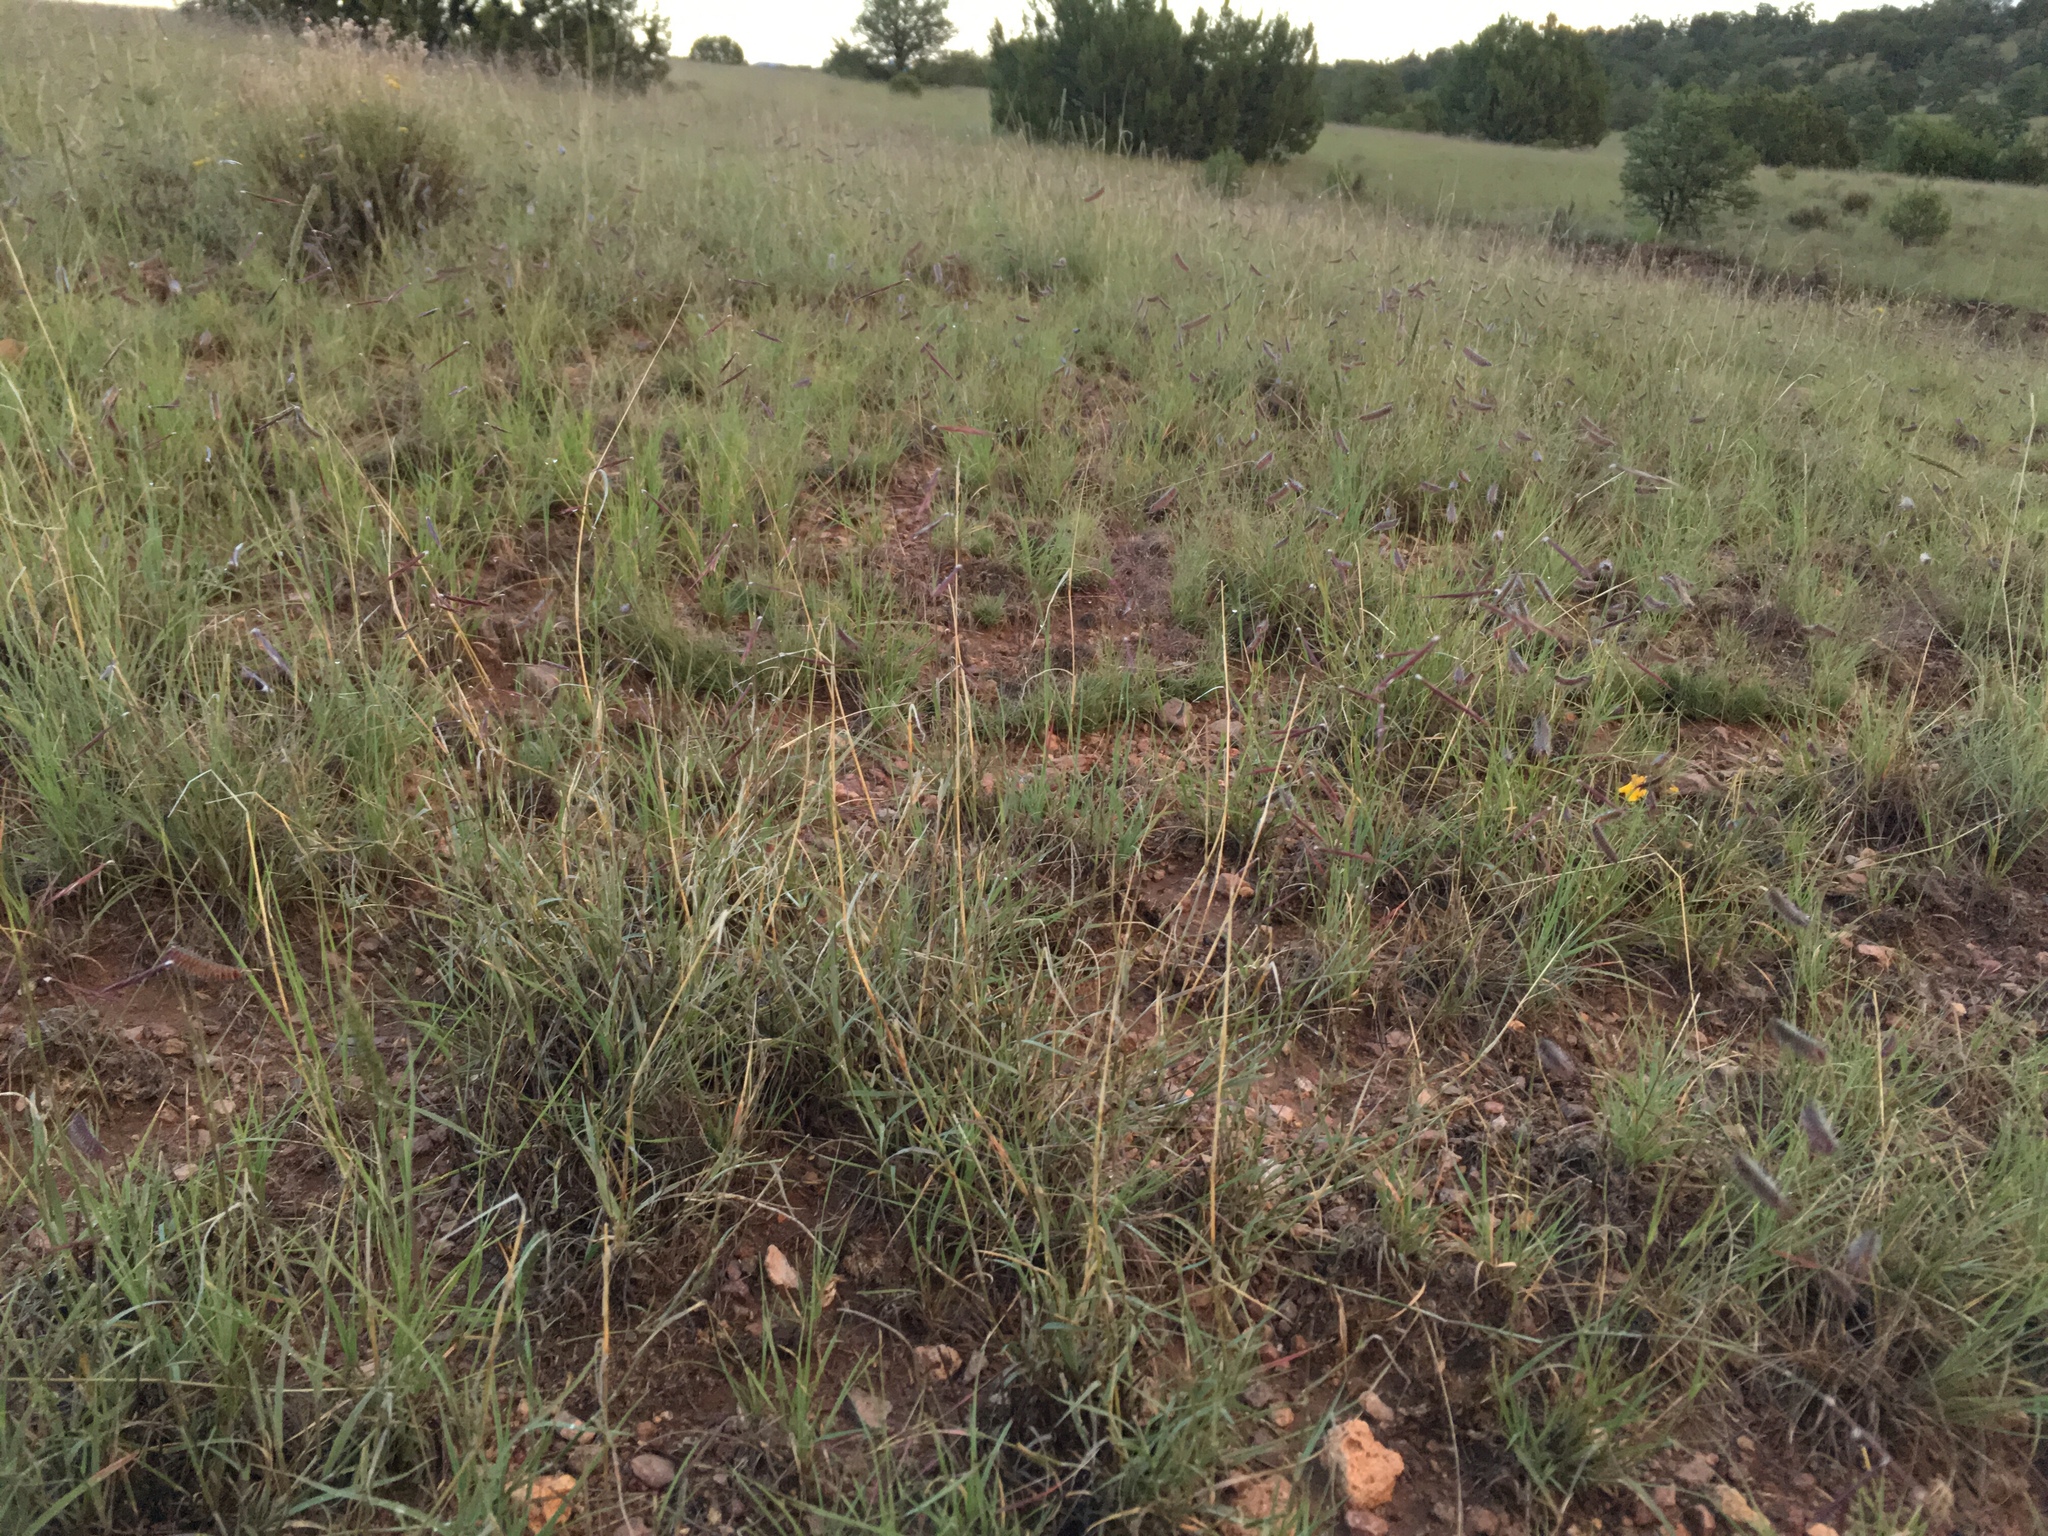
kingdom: Plantae
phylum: Tracheophyta
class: Liliopsida
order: Poales
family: Poaceae
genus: Bouteloua
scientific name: Bouteloua eriopoda
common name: Woolly foot grama
